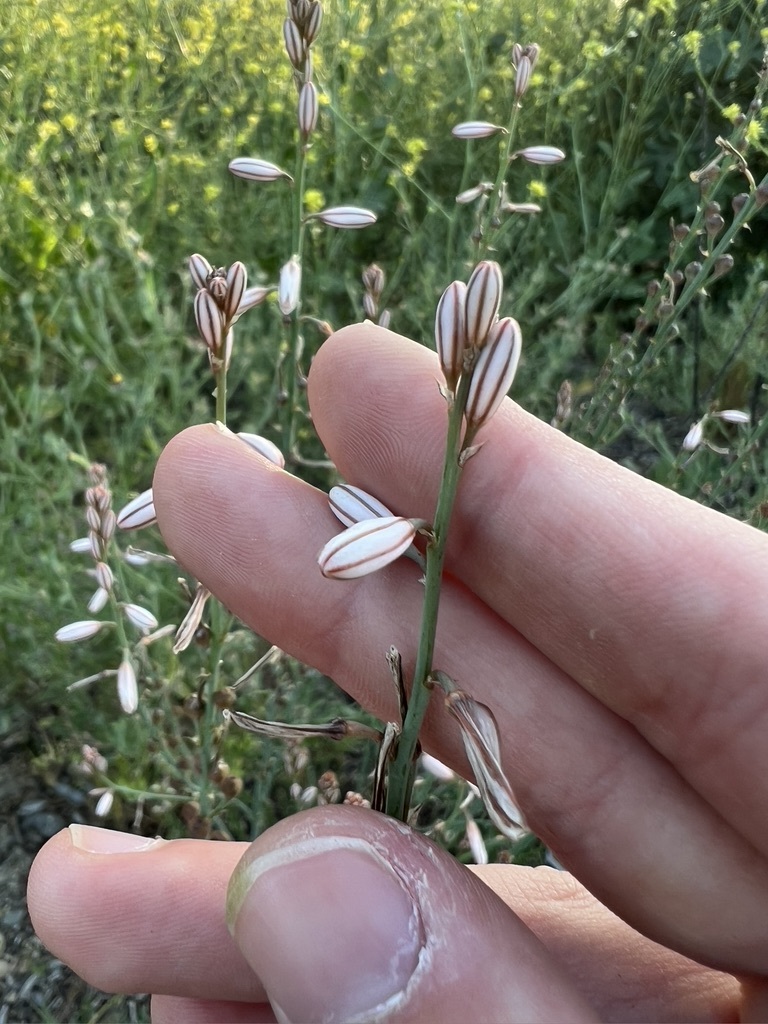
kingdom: Plantae
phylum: Tracheophyta
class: Liliopsida
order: Asparagales
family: Asphodelaceae
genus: Asphodelus
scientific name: Asphodelus fistulosus
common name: Onionweed
